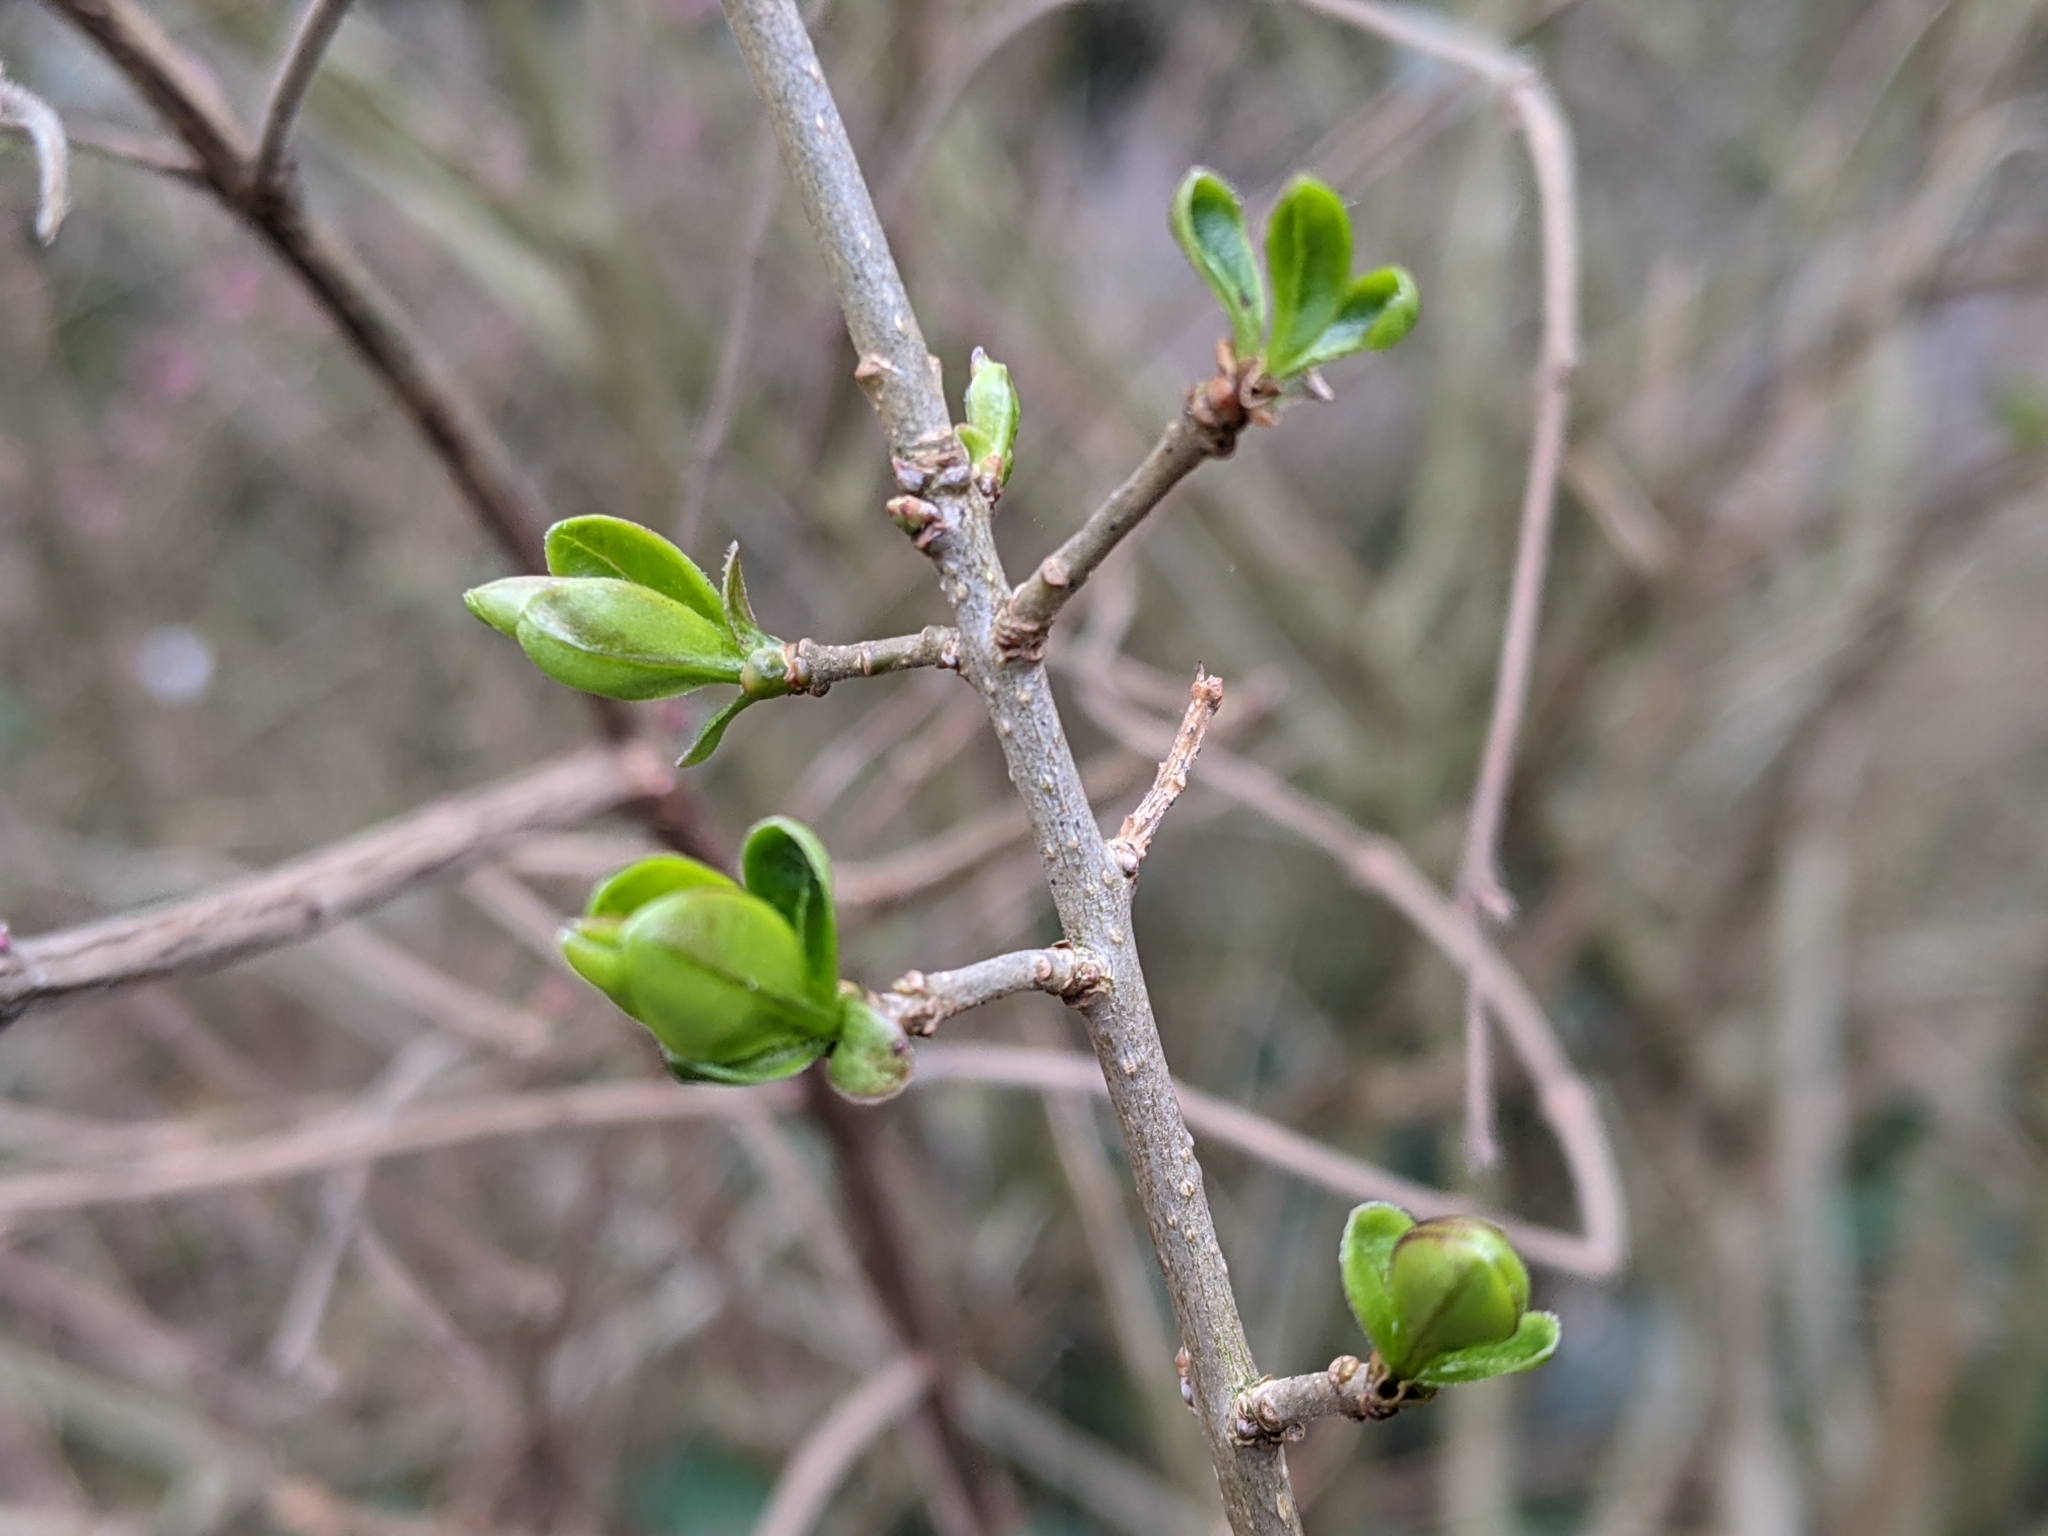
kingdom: Plantae
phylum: Tracheophyta
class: Magnoliopsida
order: Dipsacales
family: Caprifoliaceae
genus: Symphoricarpos
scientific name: Symphoricarpos chenaultii
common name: Hybrid coralberry
